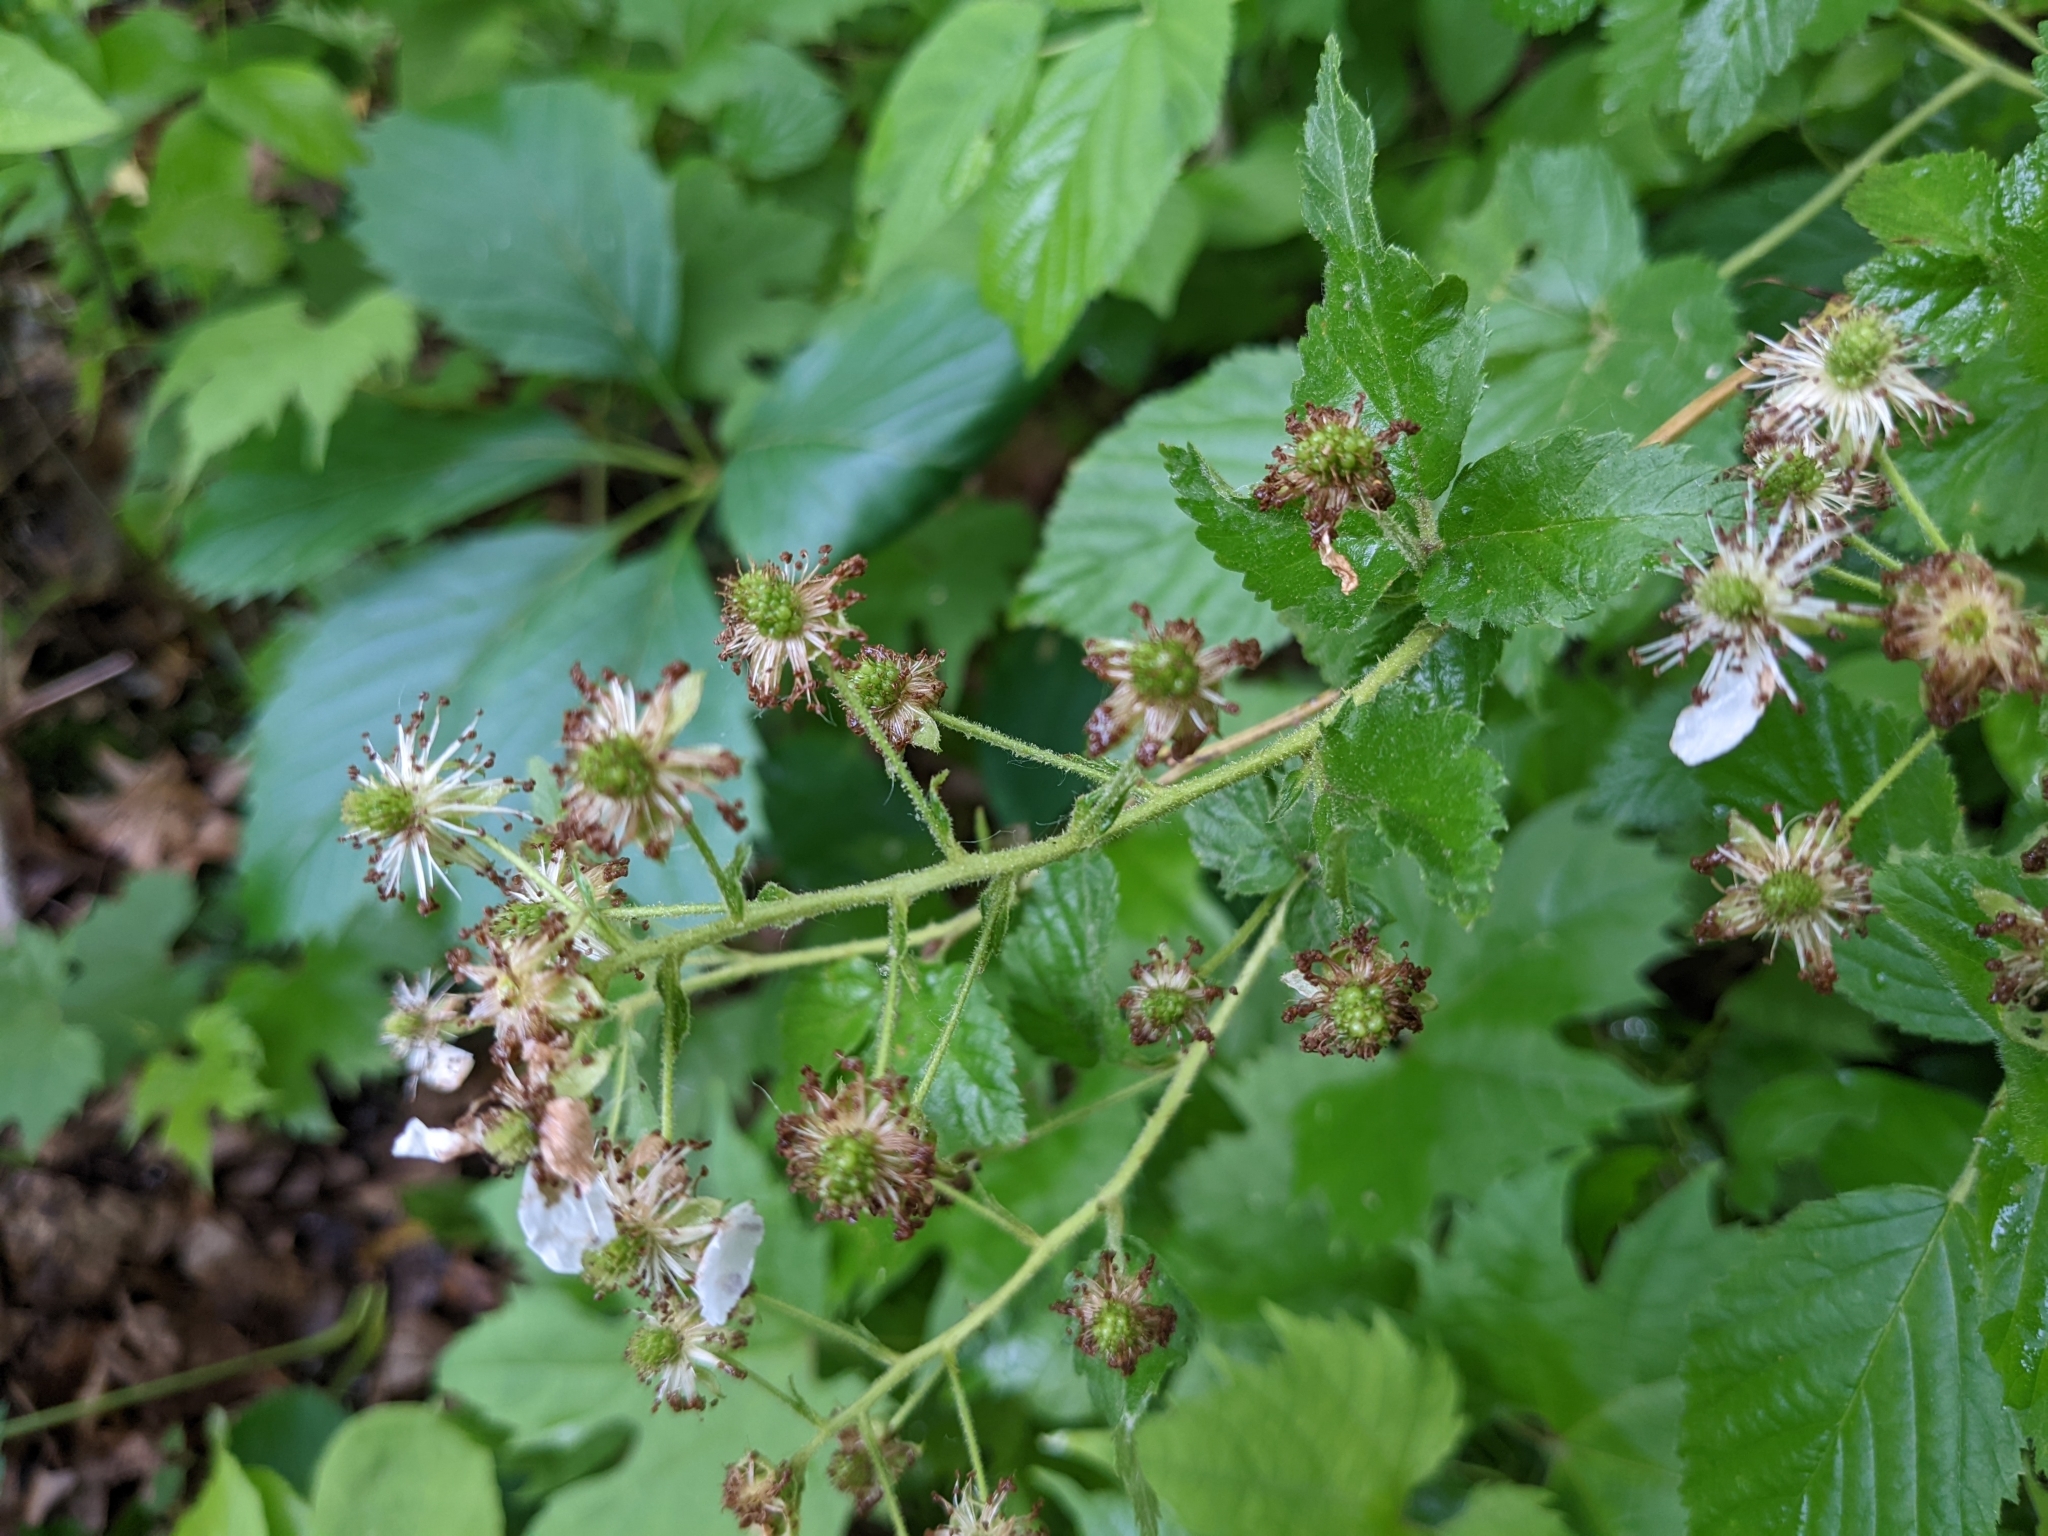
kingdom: Plantae
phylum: Tracheophyta
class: Magnoliopsida
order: Rosales
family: Rosaceae
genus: Rubus
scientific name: Rubus allegheniensis
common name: Allegheny blackberry
